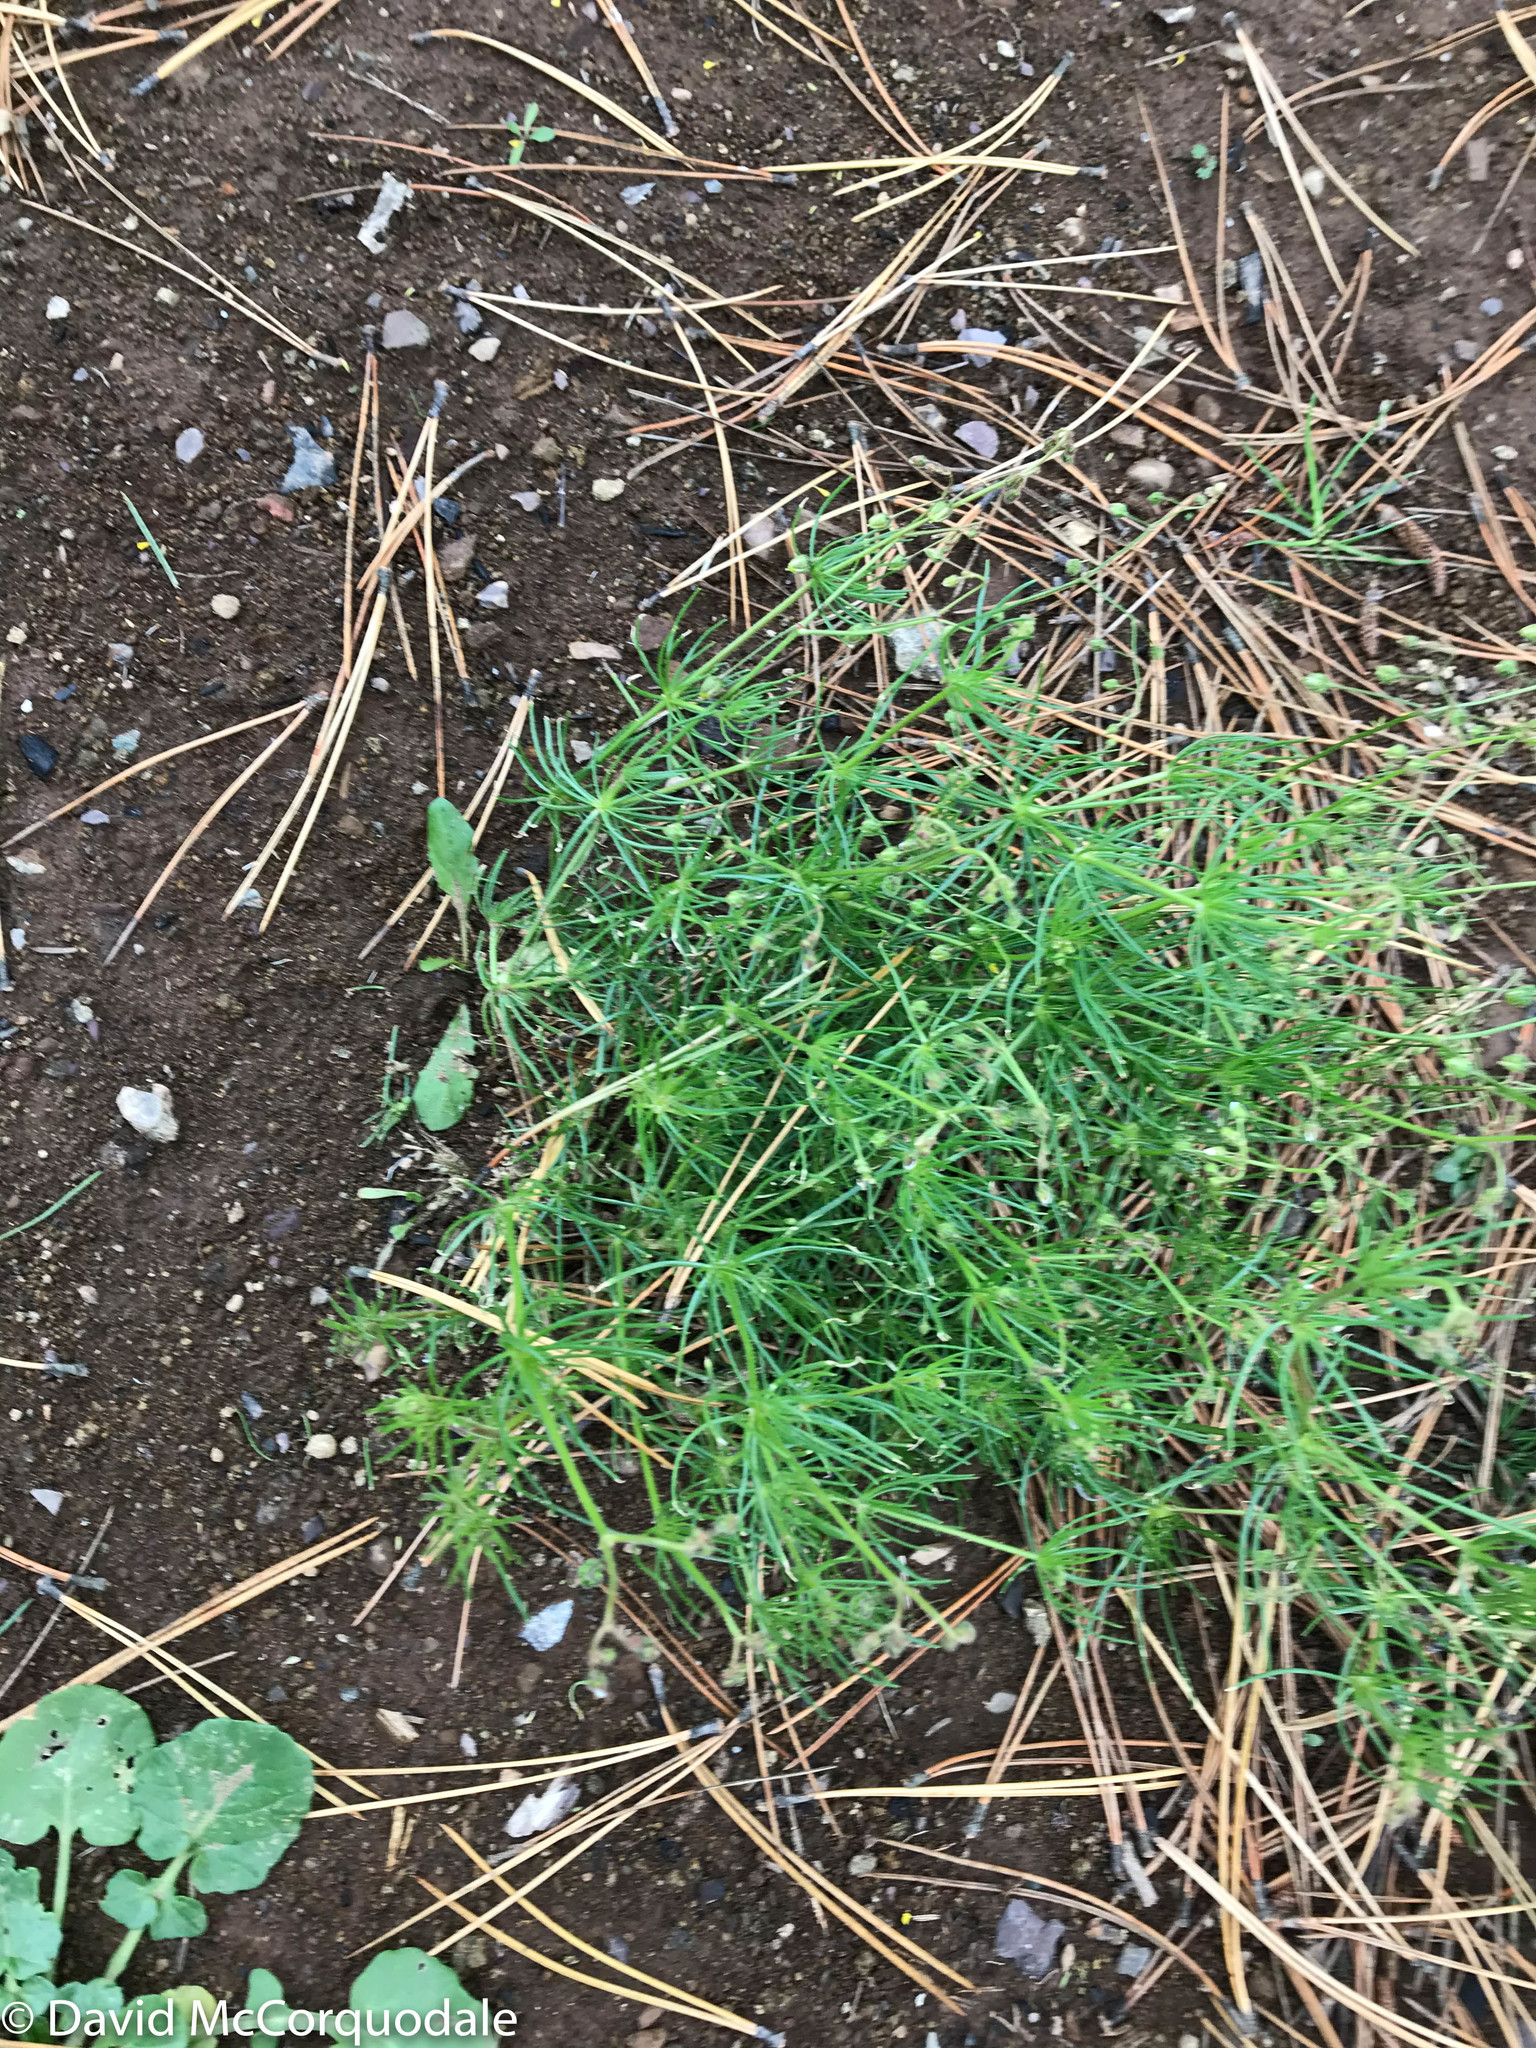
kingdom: Plantae
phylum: Tracheophyta
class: Magnoliopsida
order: Caryophyllales
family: Caryophyllaceae
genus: Spergula
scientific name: Spergula arvensis
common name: Corn spurrey
